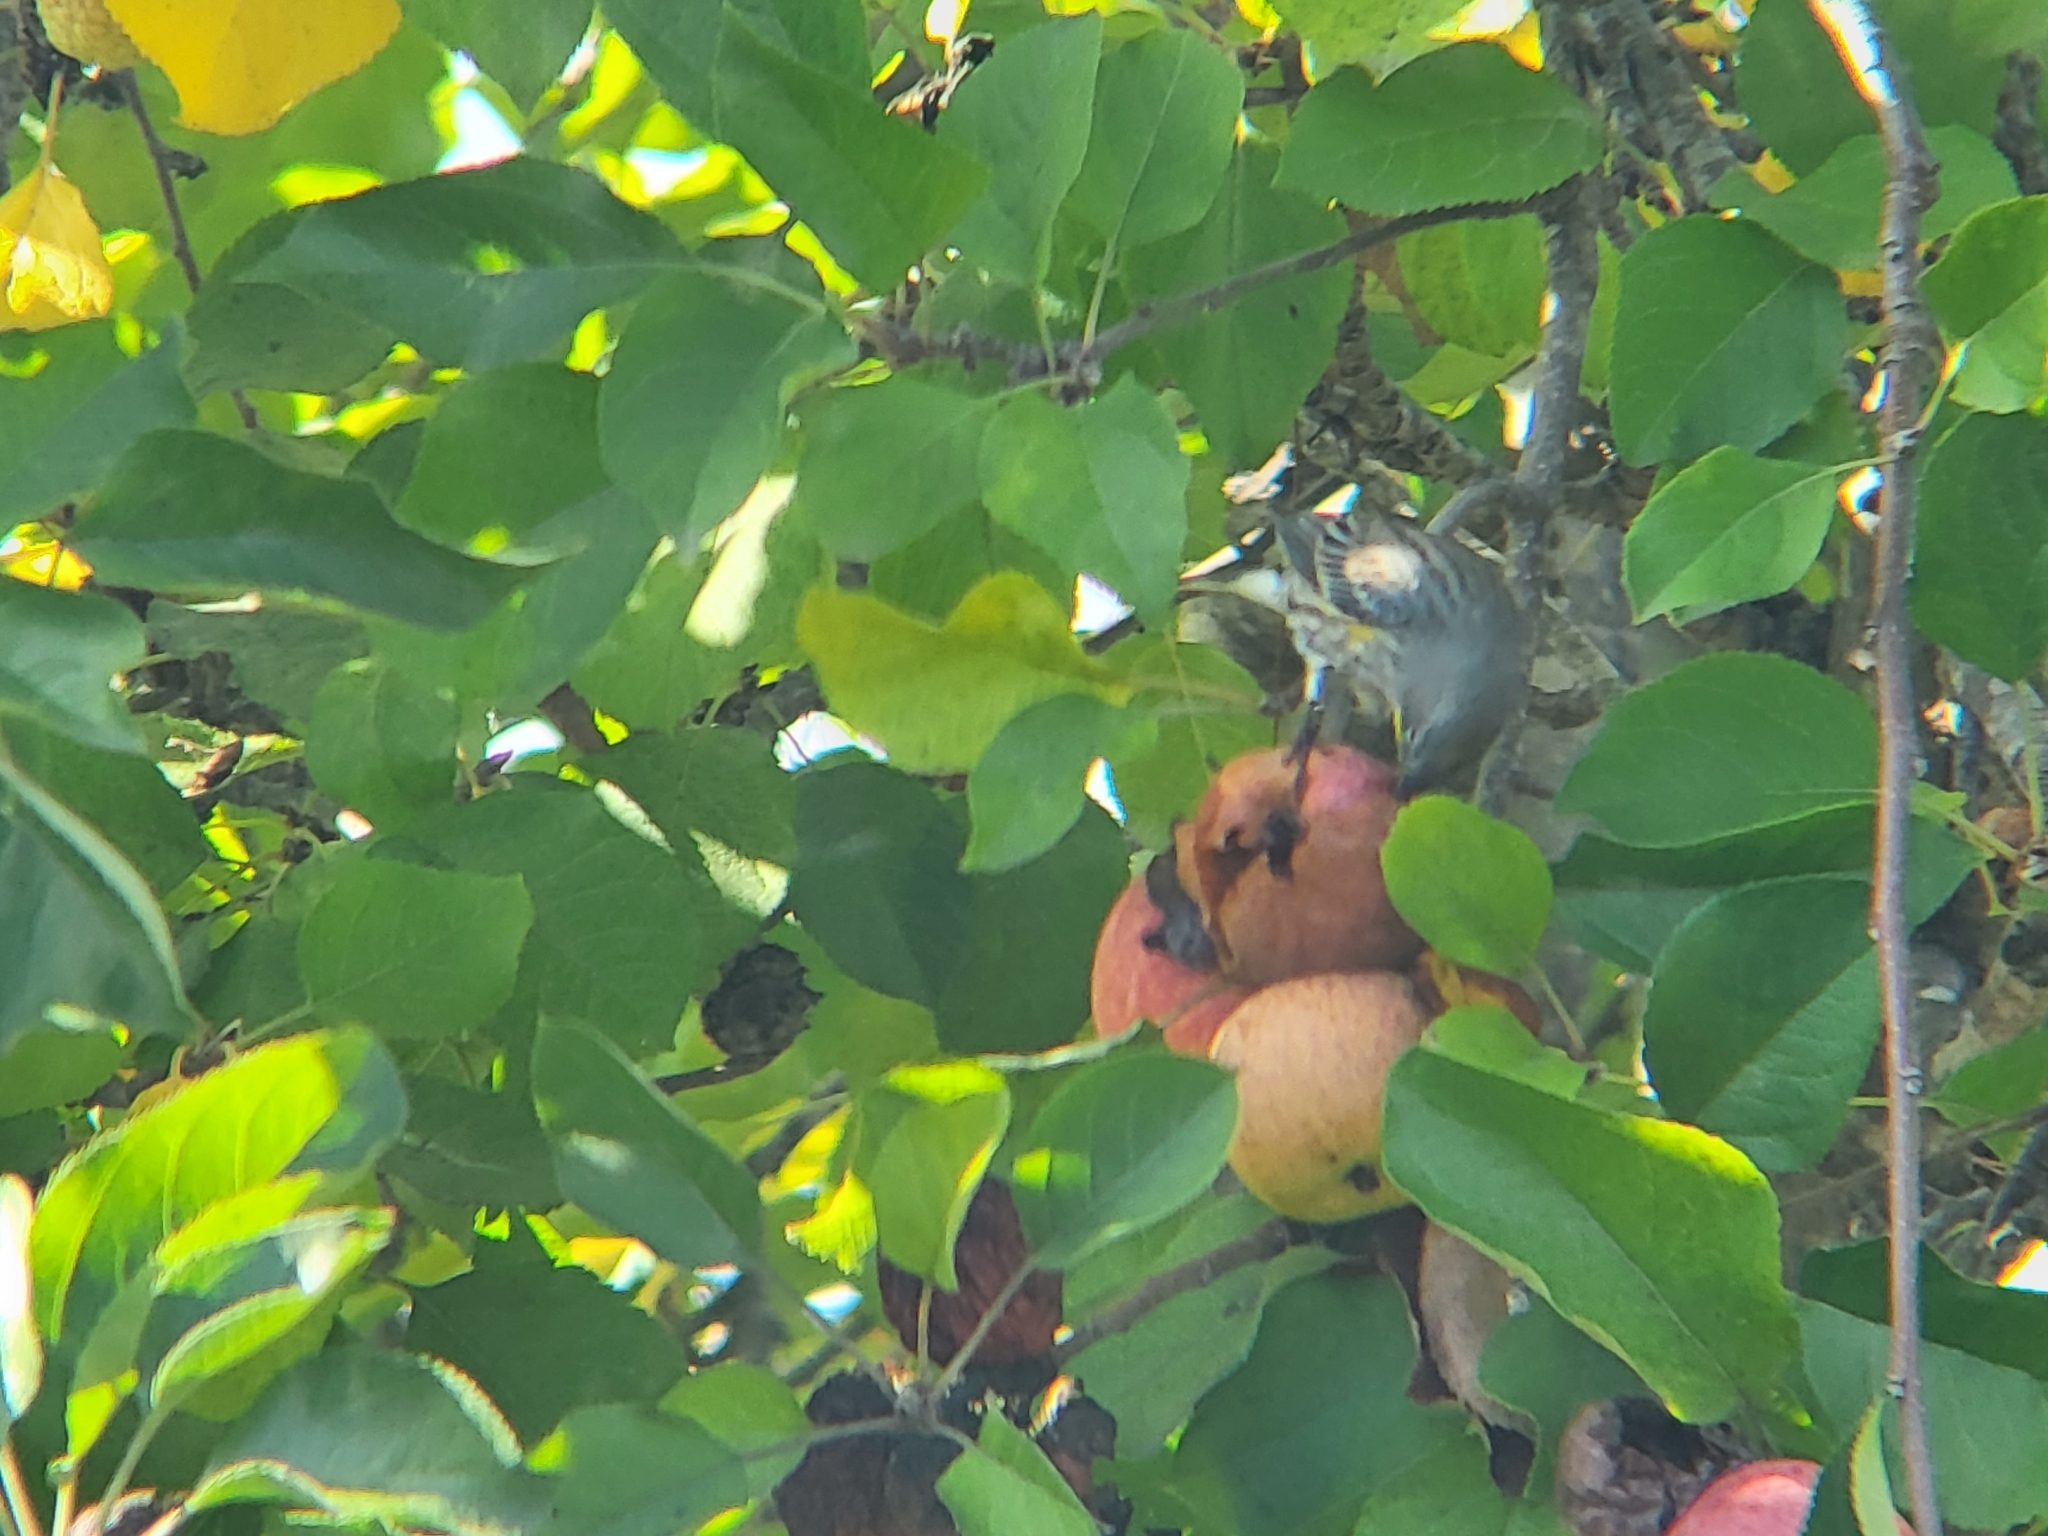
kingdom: Animalia
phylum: Chordata
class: Aves
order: Passeriformes
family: Parulidae
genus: Setophaga
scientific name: Setophaga coronata
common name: Myrtle warbler
